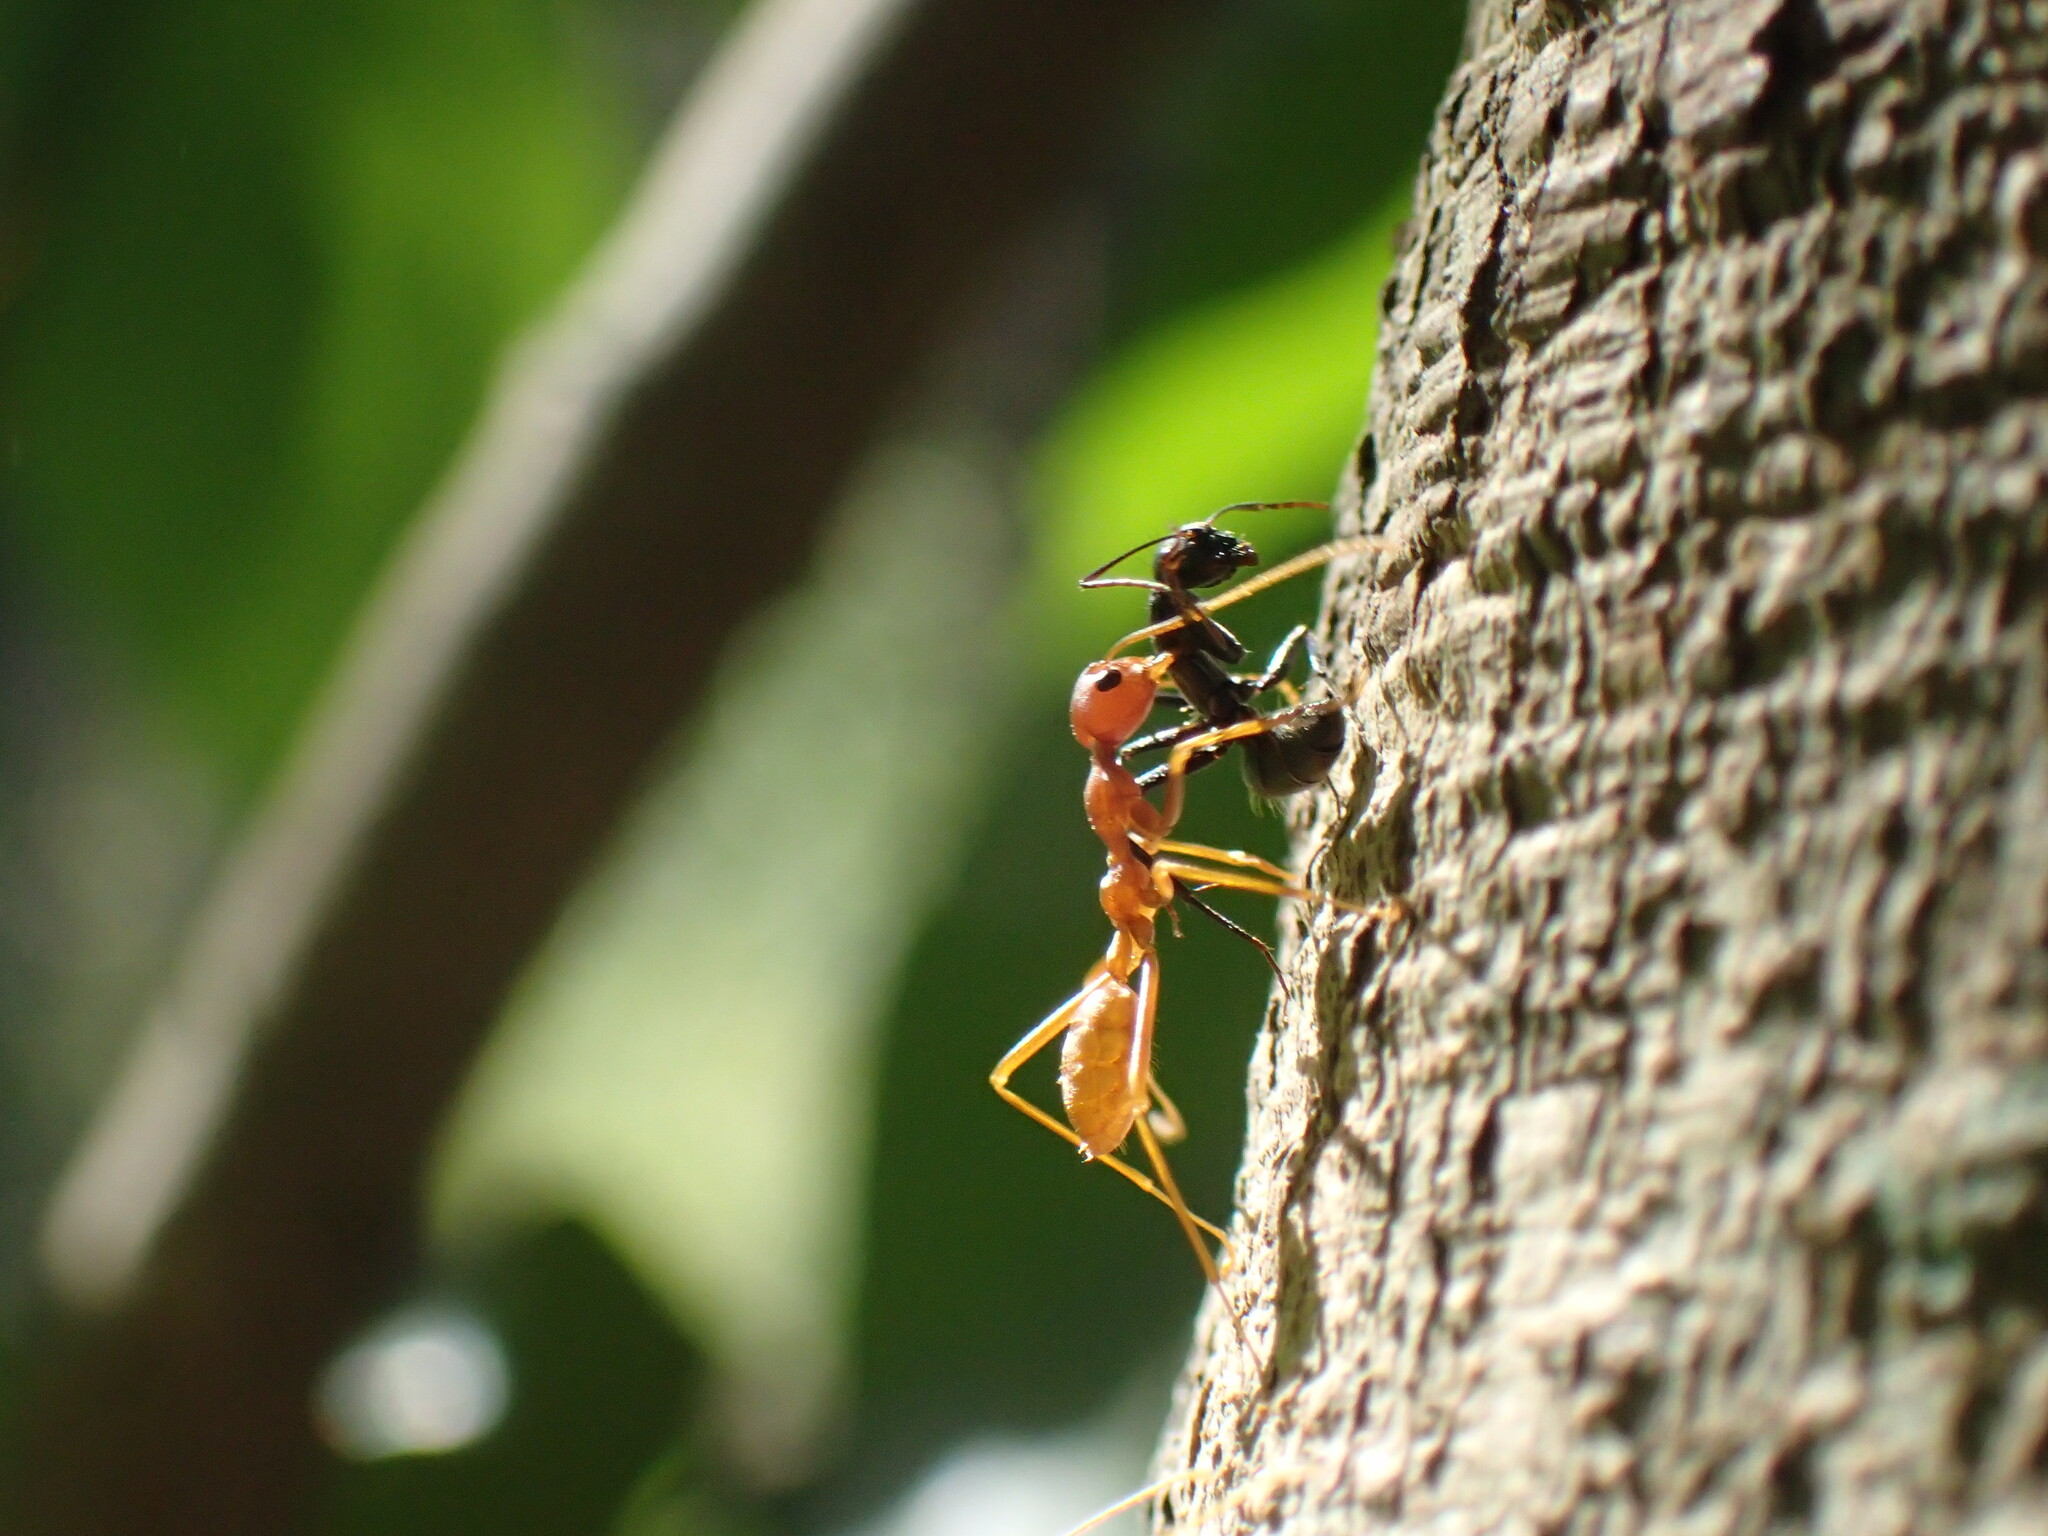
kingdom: Animalia
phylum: Arthropoda
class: Insecta
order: Hymenoptera
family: Formicidae
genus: Oecophylla
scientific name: Oecophylla longinoda
